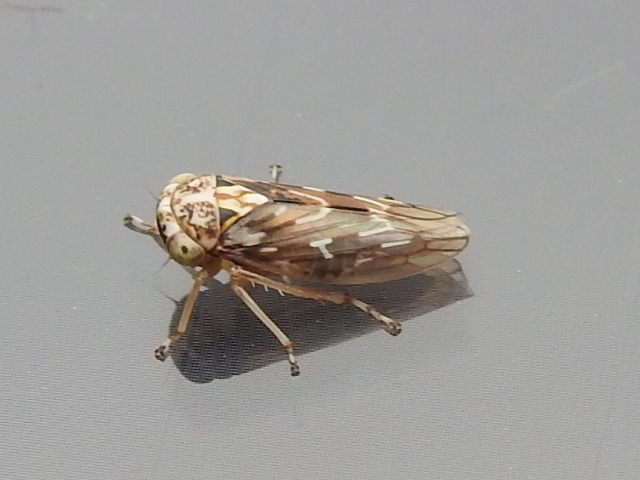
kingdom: Animalia
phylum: Arthropoda
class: Insecta
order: Hemiptera
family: Cicadellidae
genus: Liocratus
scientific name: Liocratus moniliferae
